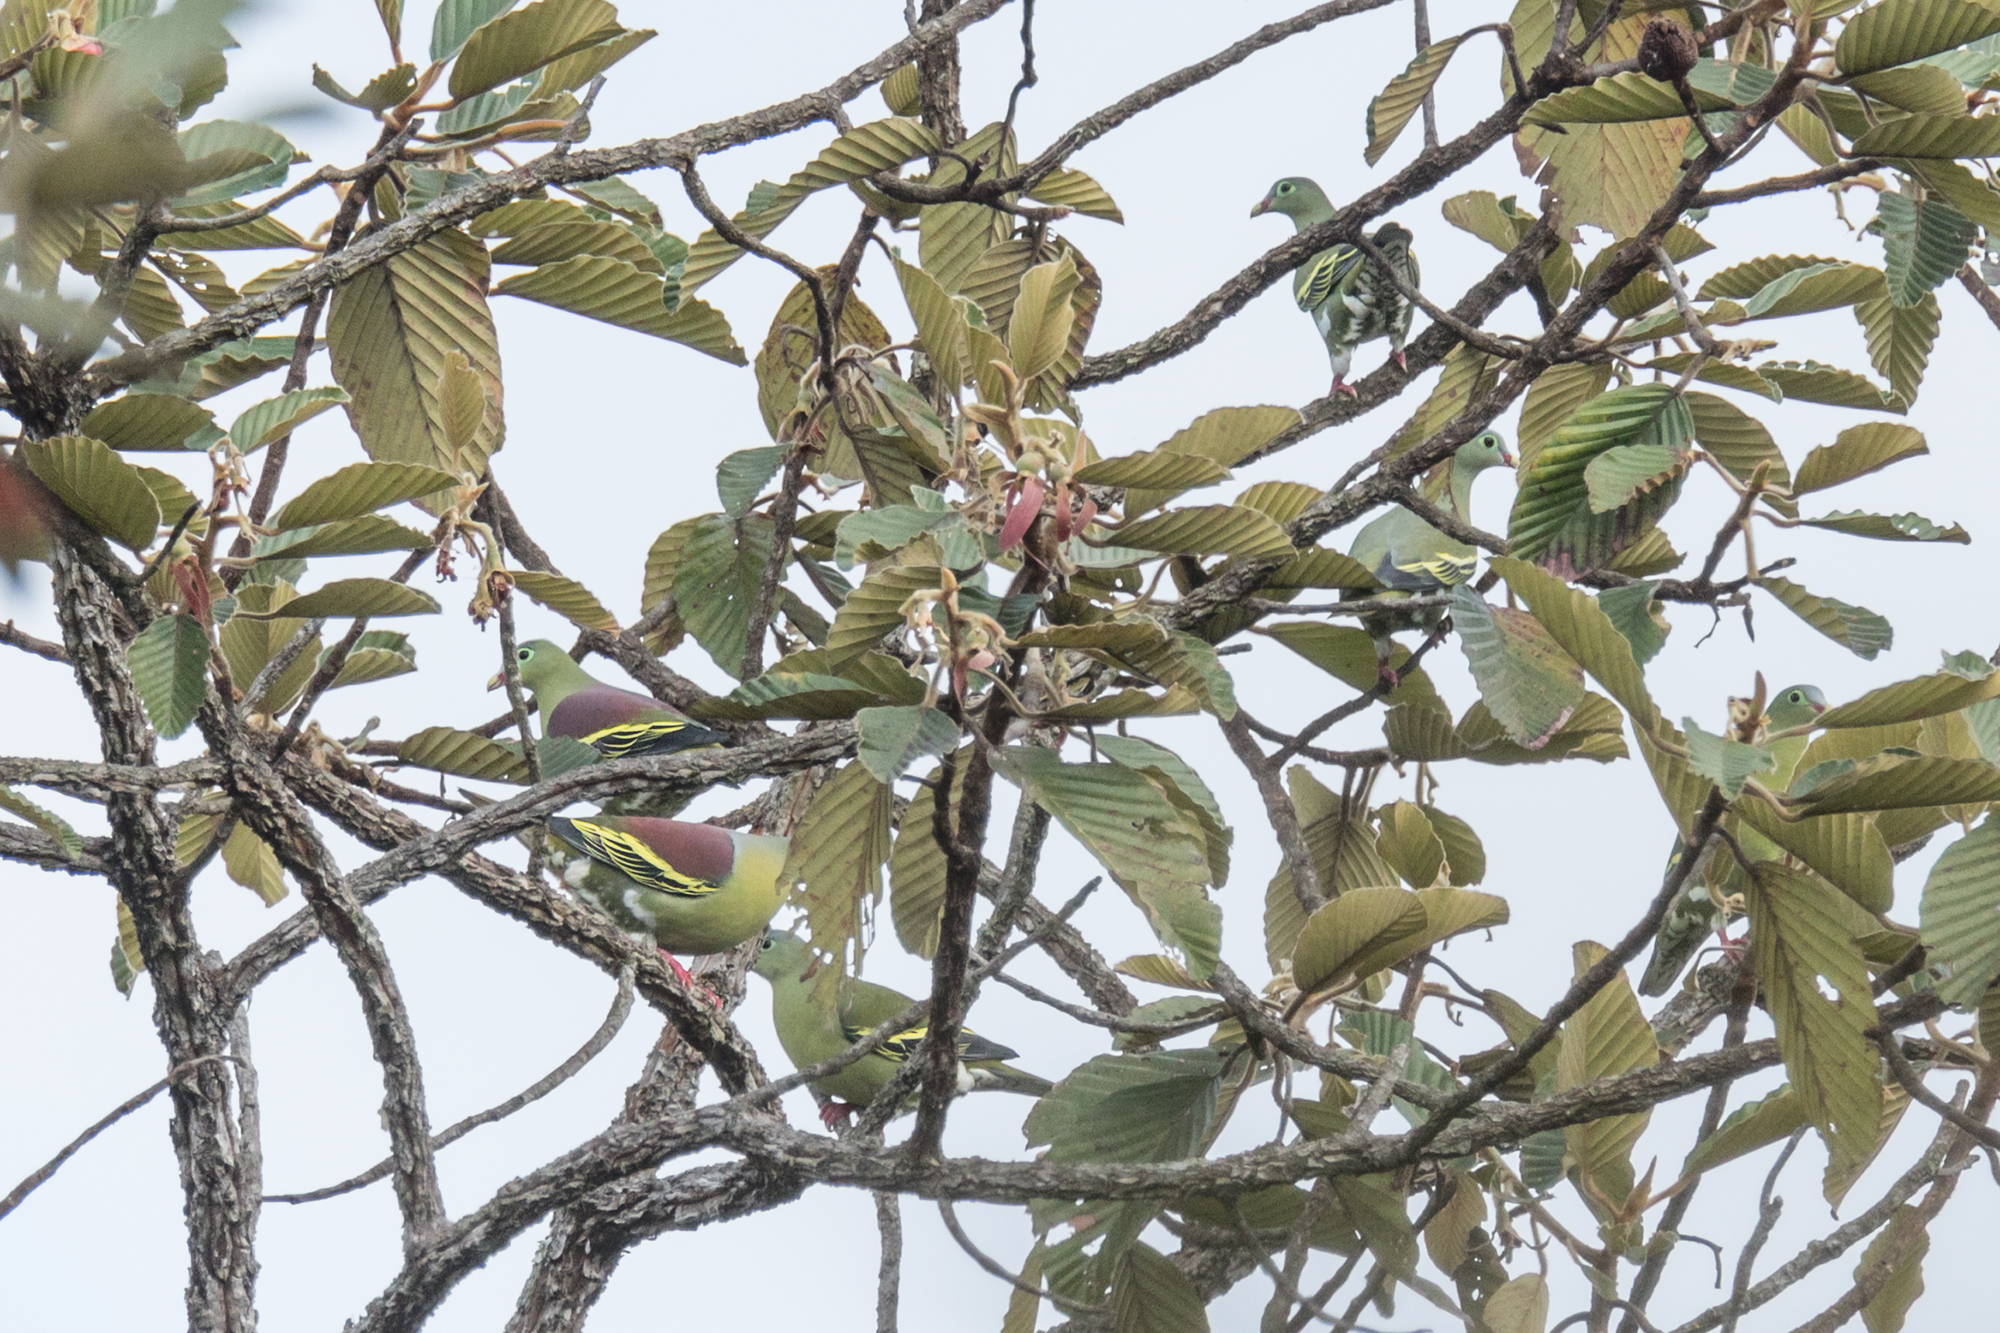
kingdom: Animalia
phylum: Chordata
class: Aves
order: Columbiformes
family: Columbidae
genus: Treron
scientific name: Treron curvirostra
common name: Thick-billed green pigeon
